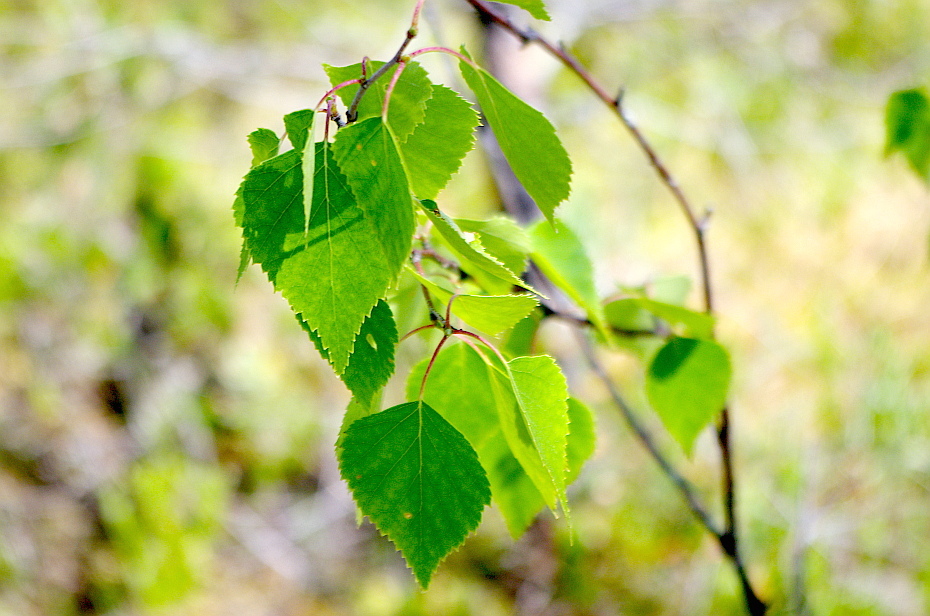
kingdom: Plantae
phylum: Tracheophyta
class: Magnoliopsida
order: Fagales
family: Betulaceae
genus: Betula
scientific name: Betula pendula
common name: Silver birch
